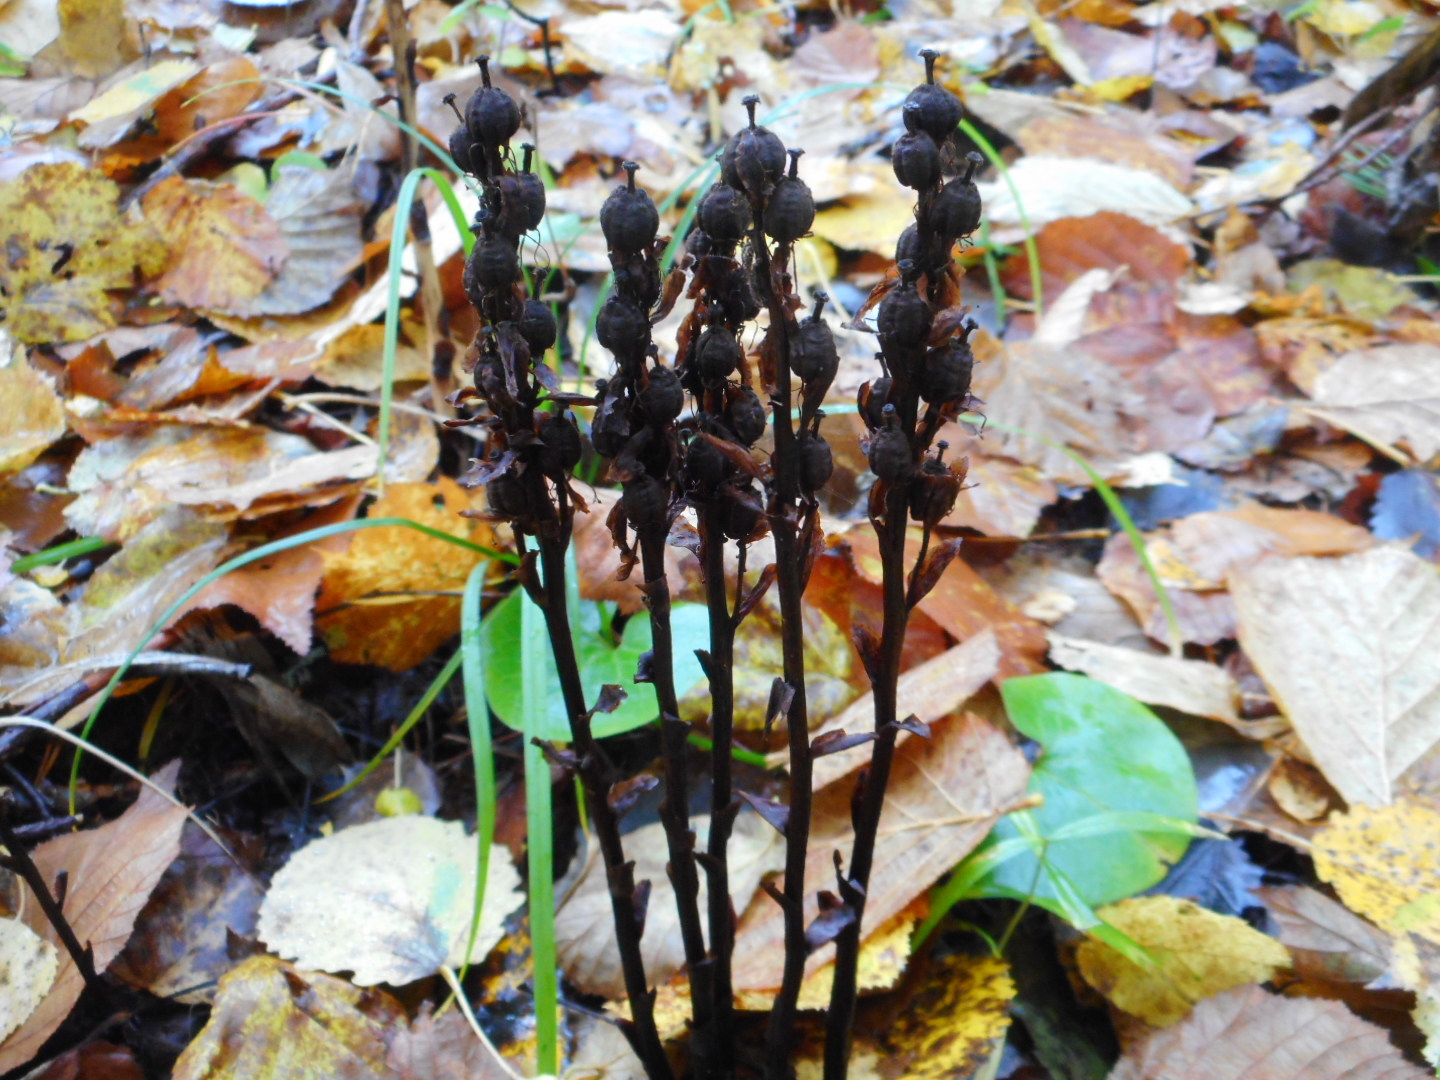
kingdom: Plantae
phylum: Tracheophyta
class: Magnoliopsida
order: Ericales
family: Ericaceae
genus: Hypopitys
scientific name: Hypopitys monotropa
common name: Yellow bird's-nest
